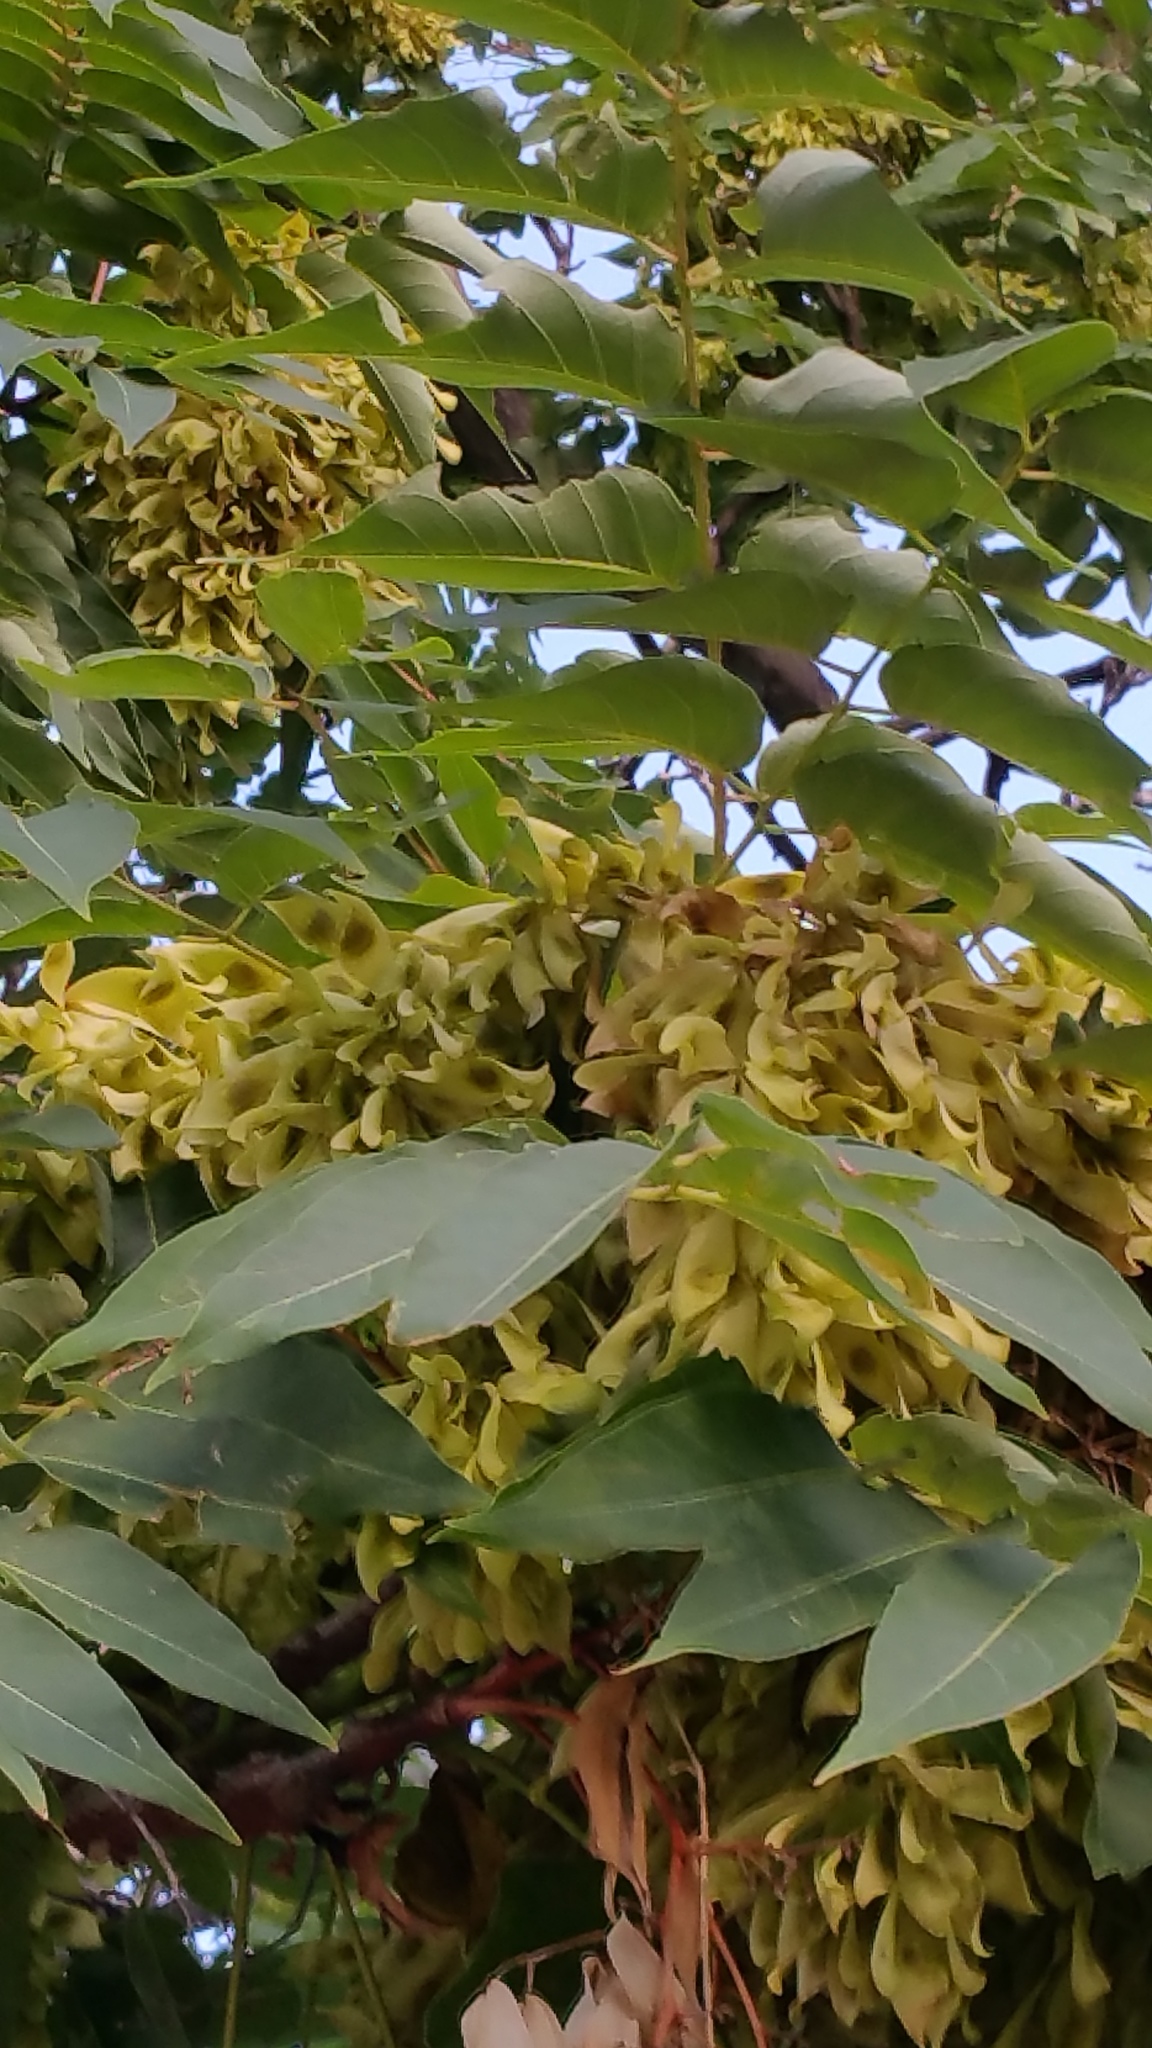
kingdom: Plantae
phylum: Tracheophyta
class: Magnoliopsida
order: Sapindales
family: Simaroubaceae
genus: Ailanthus
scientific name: Ailanthus altissima
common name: Tree-of-heaven
